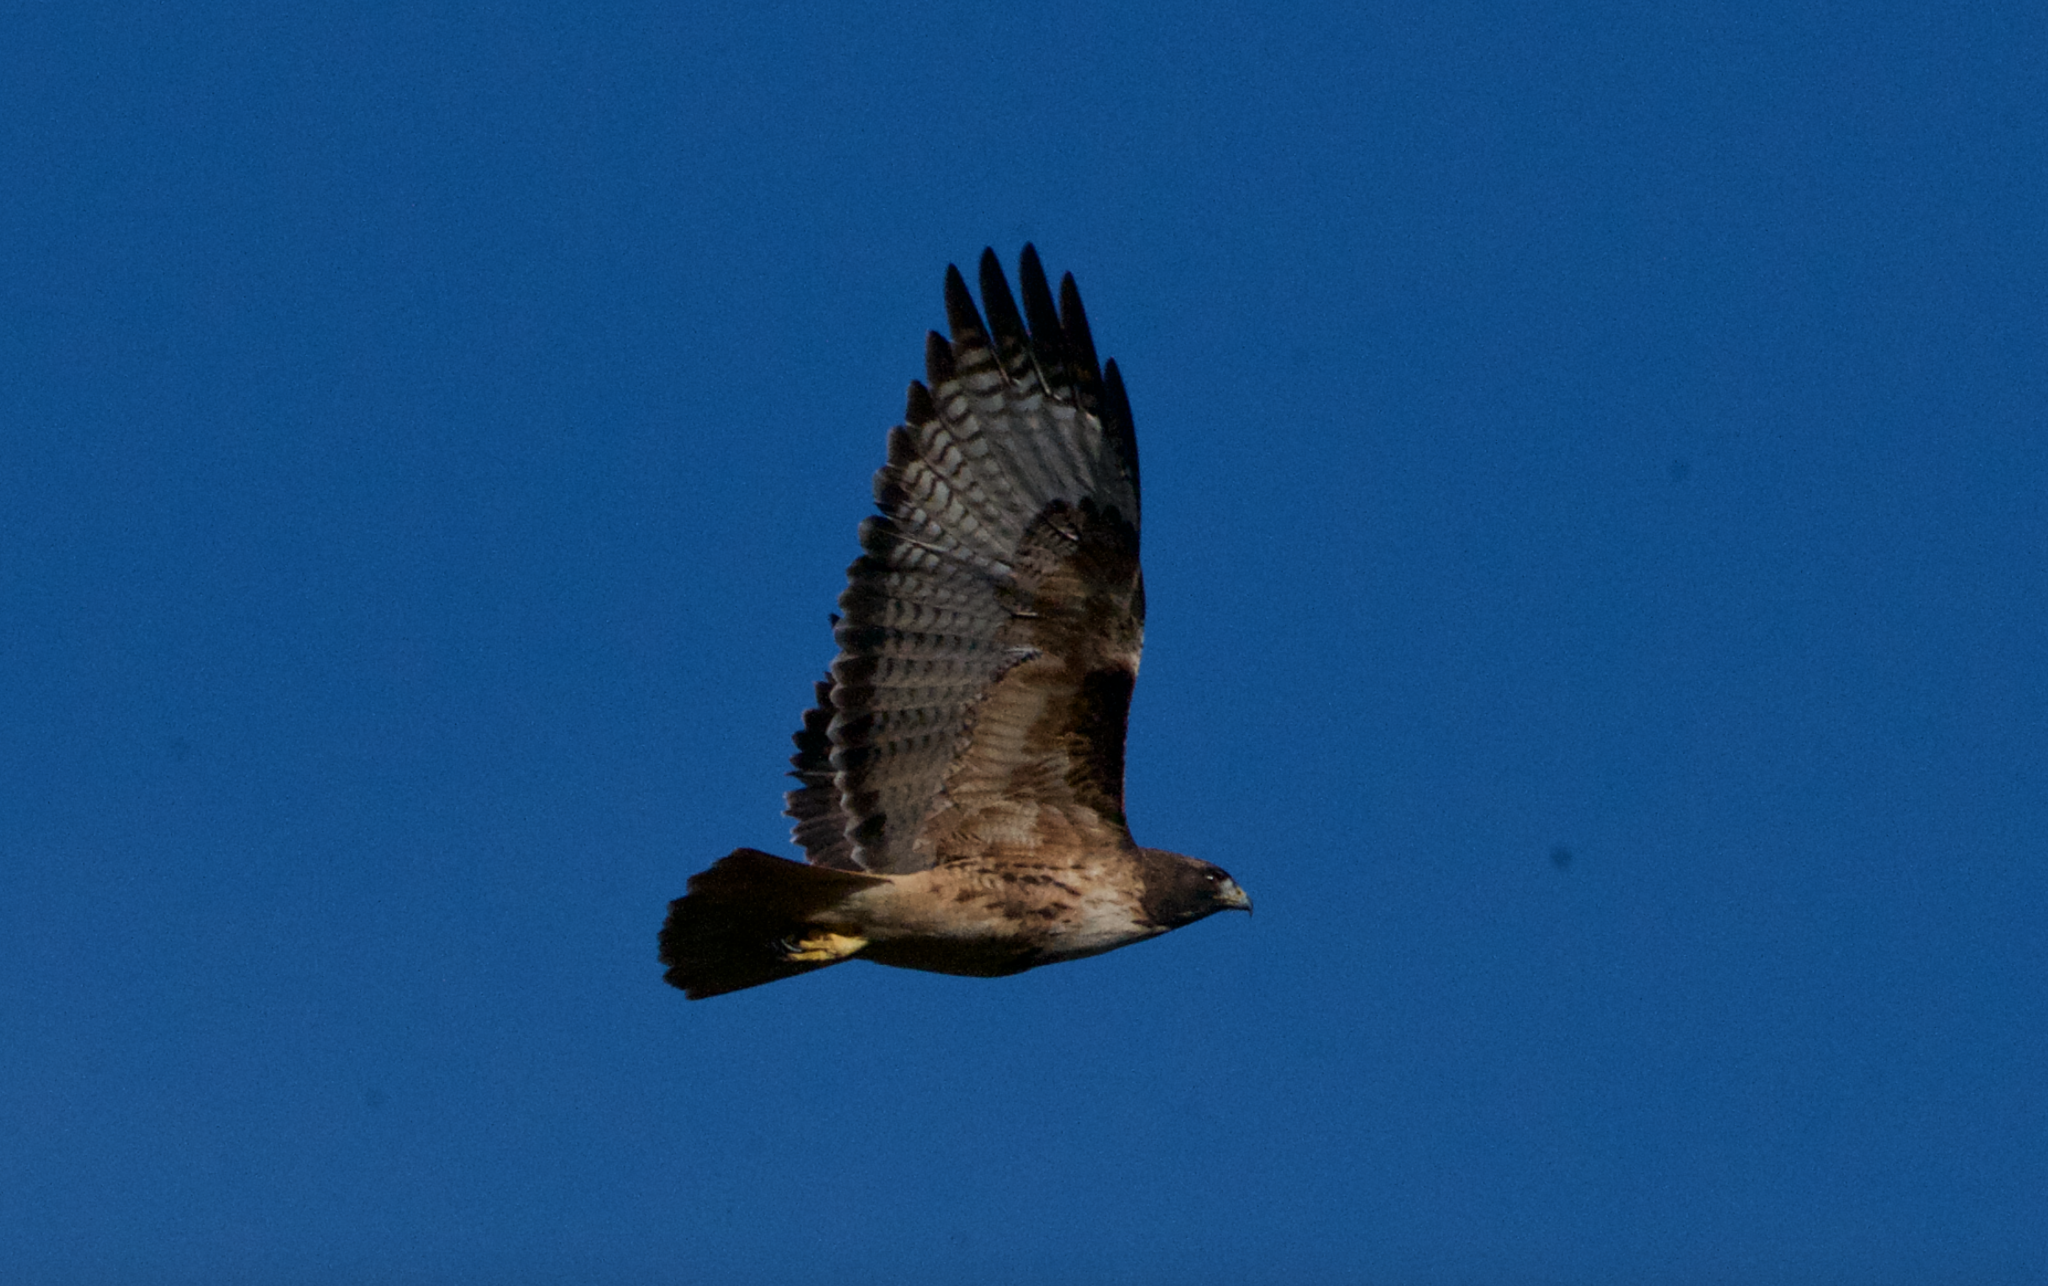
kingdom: Animalia
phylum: Chordata
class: Aves
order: Accipitriformes
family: Accipitridae
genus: Buteo
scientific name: Buteo jamaicensis
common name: Red-tailed hawk
